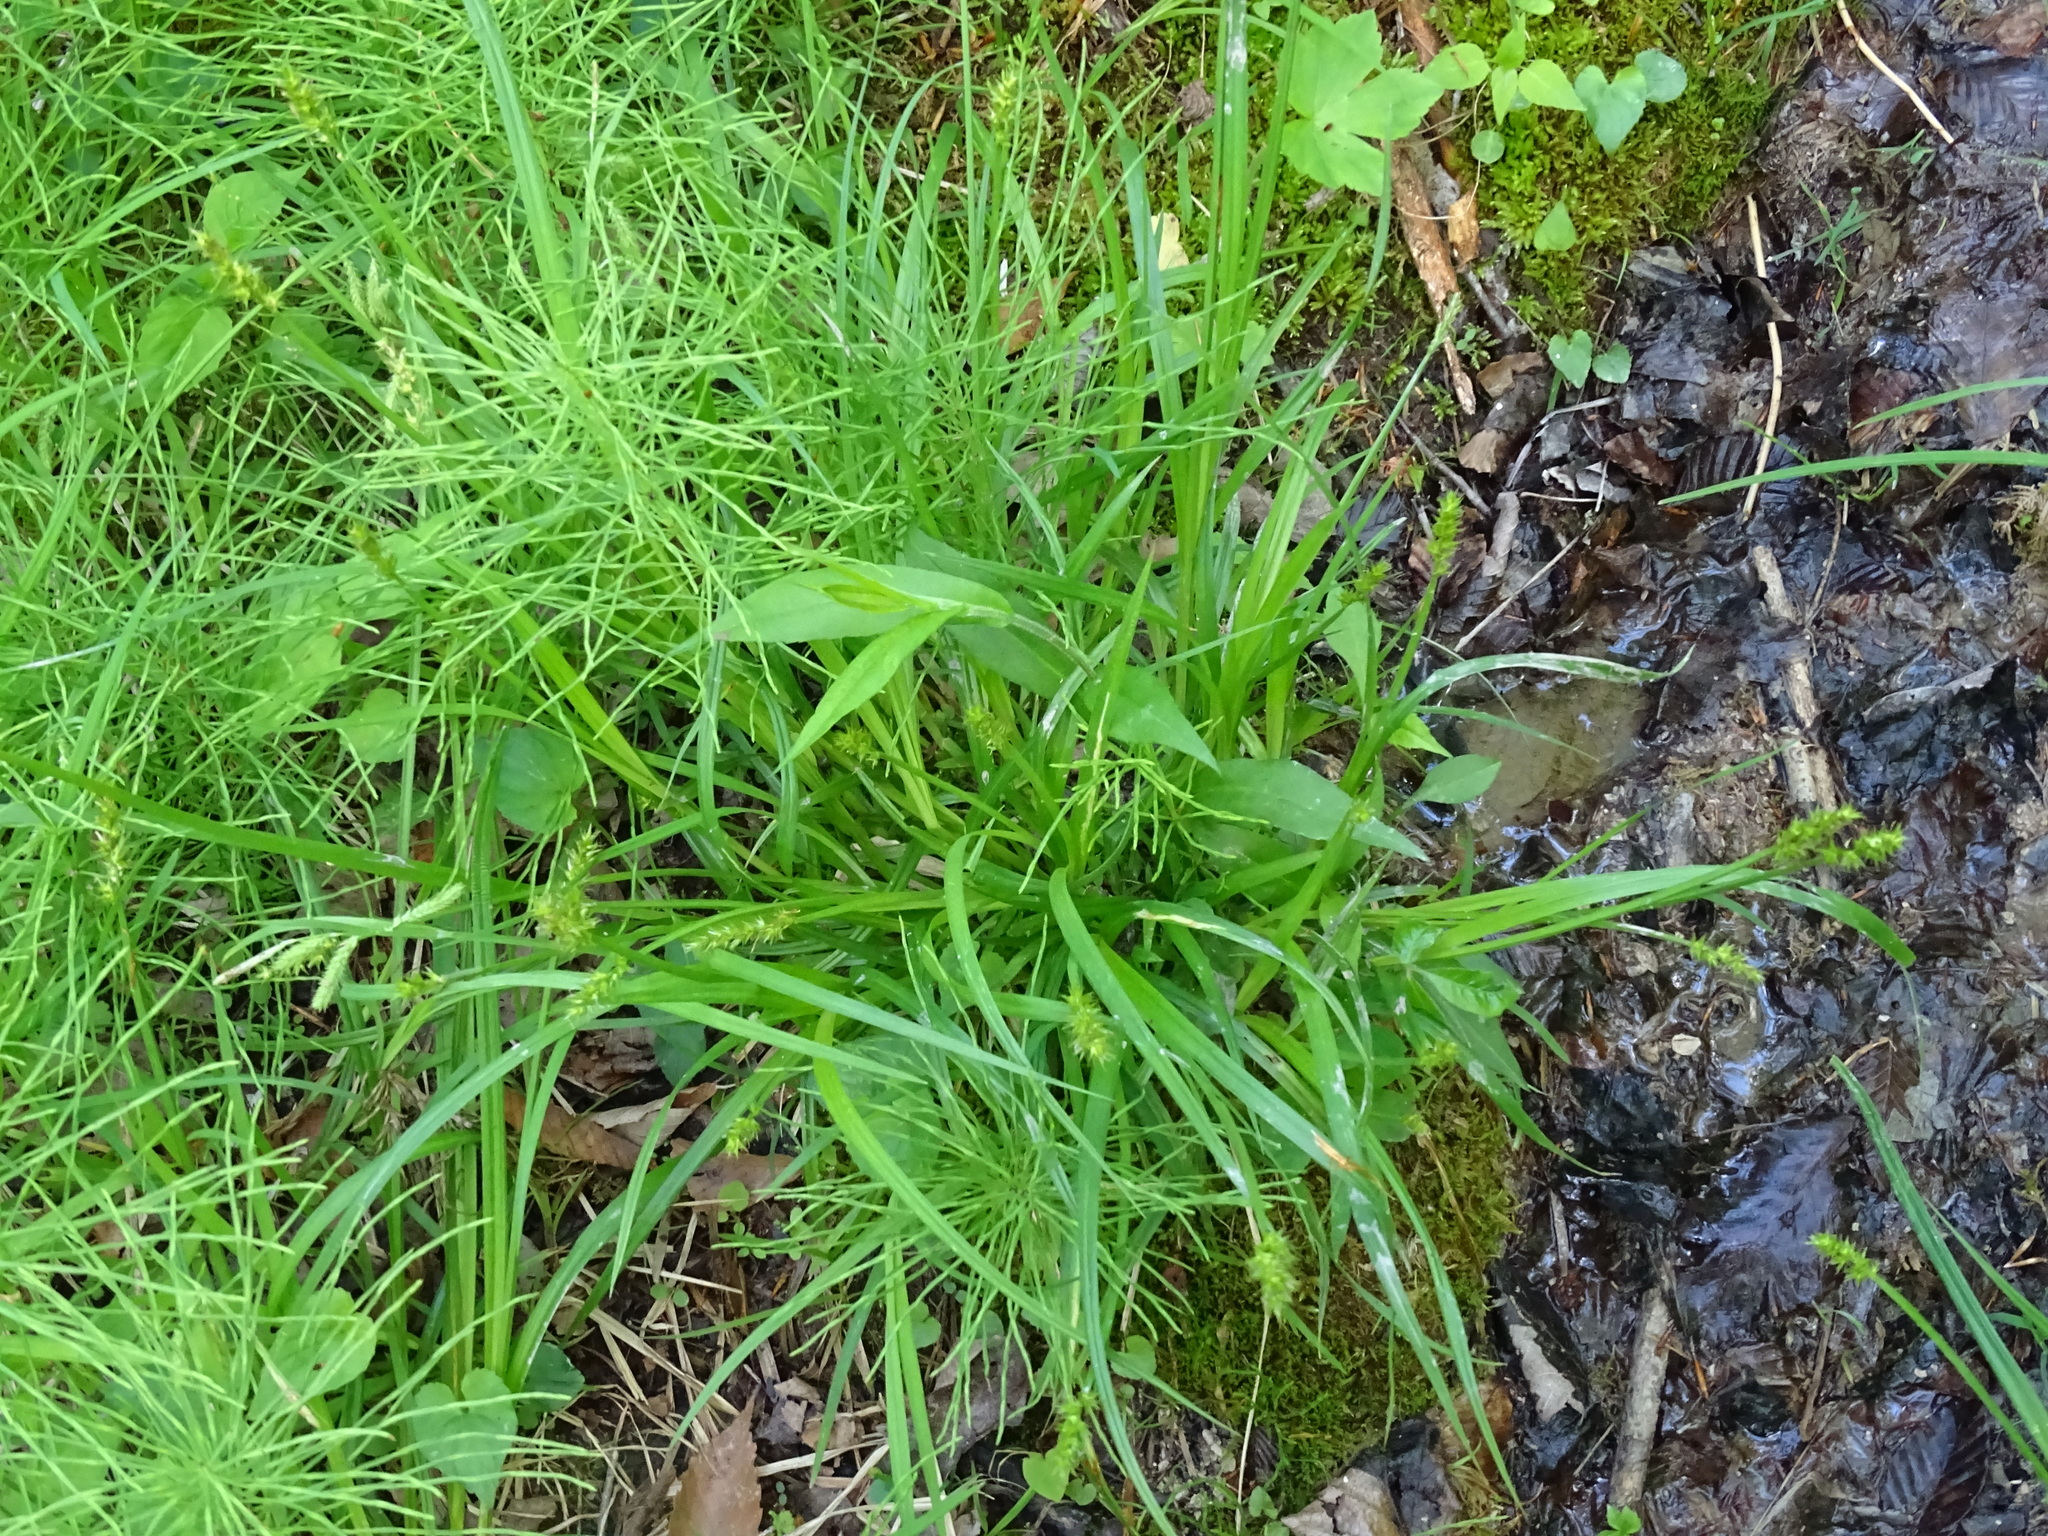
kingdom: Plantae
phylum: Tracheophyta
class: Liliopsida
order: Poales
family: Cyperaceae
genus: Carex
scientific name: Carex laevivaginata
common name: Smooth-sheathed fox sedge
